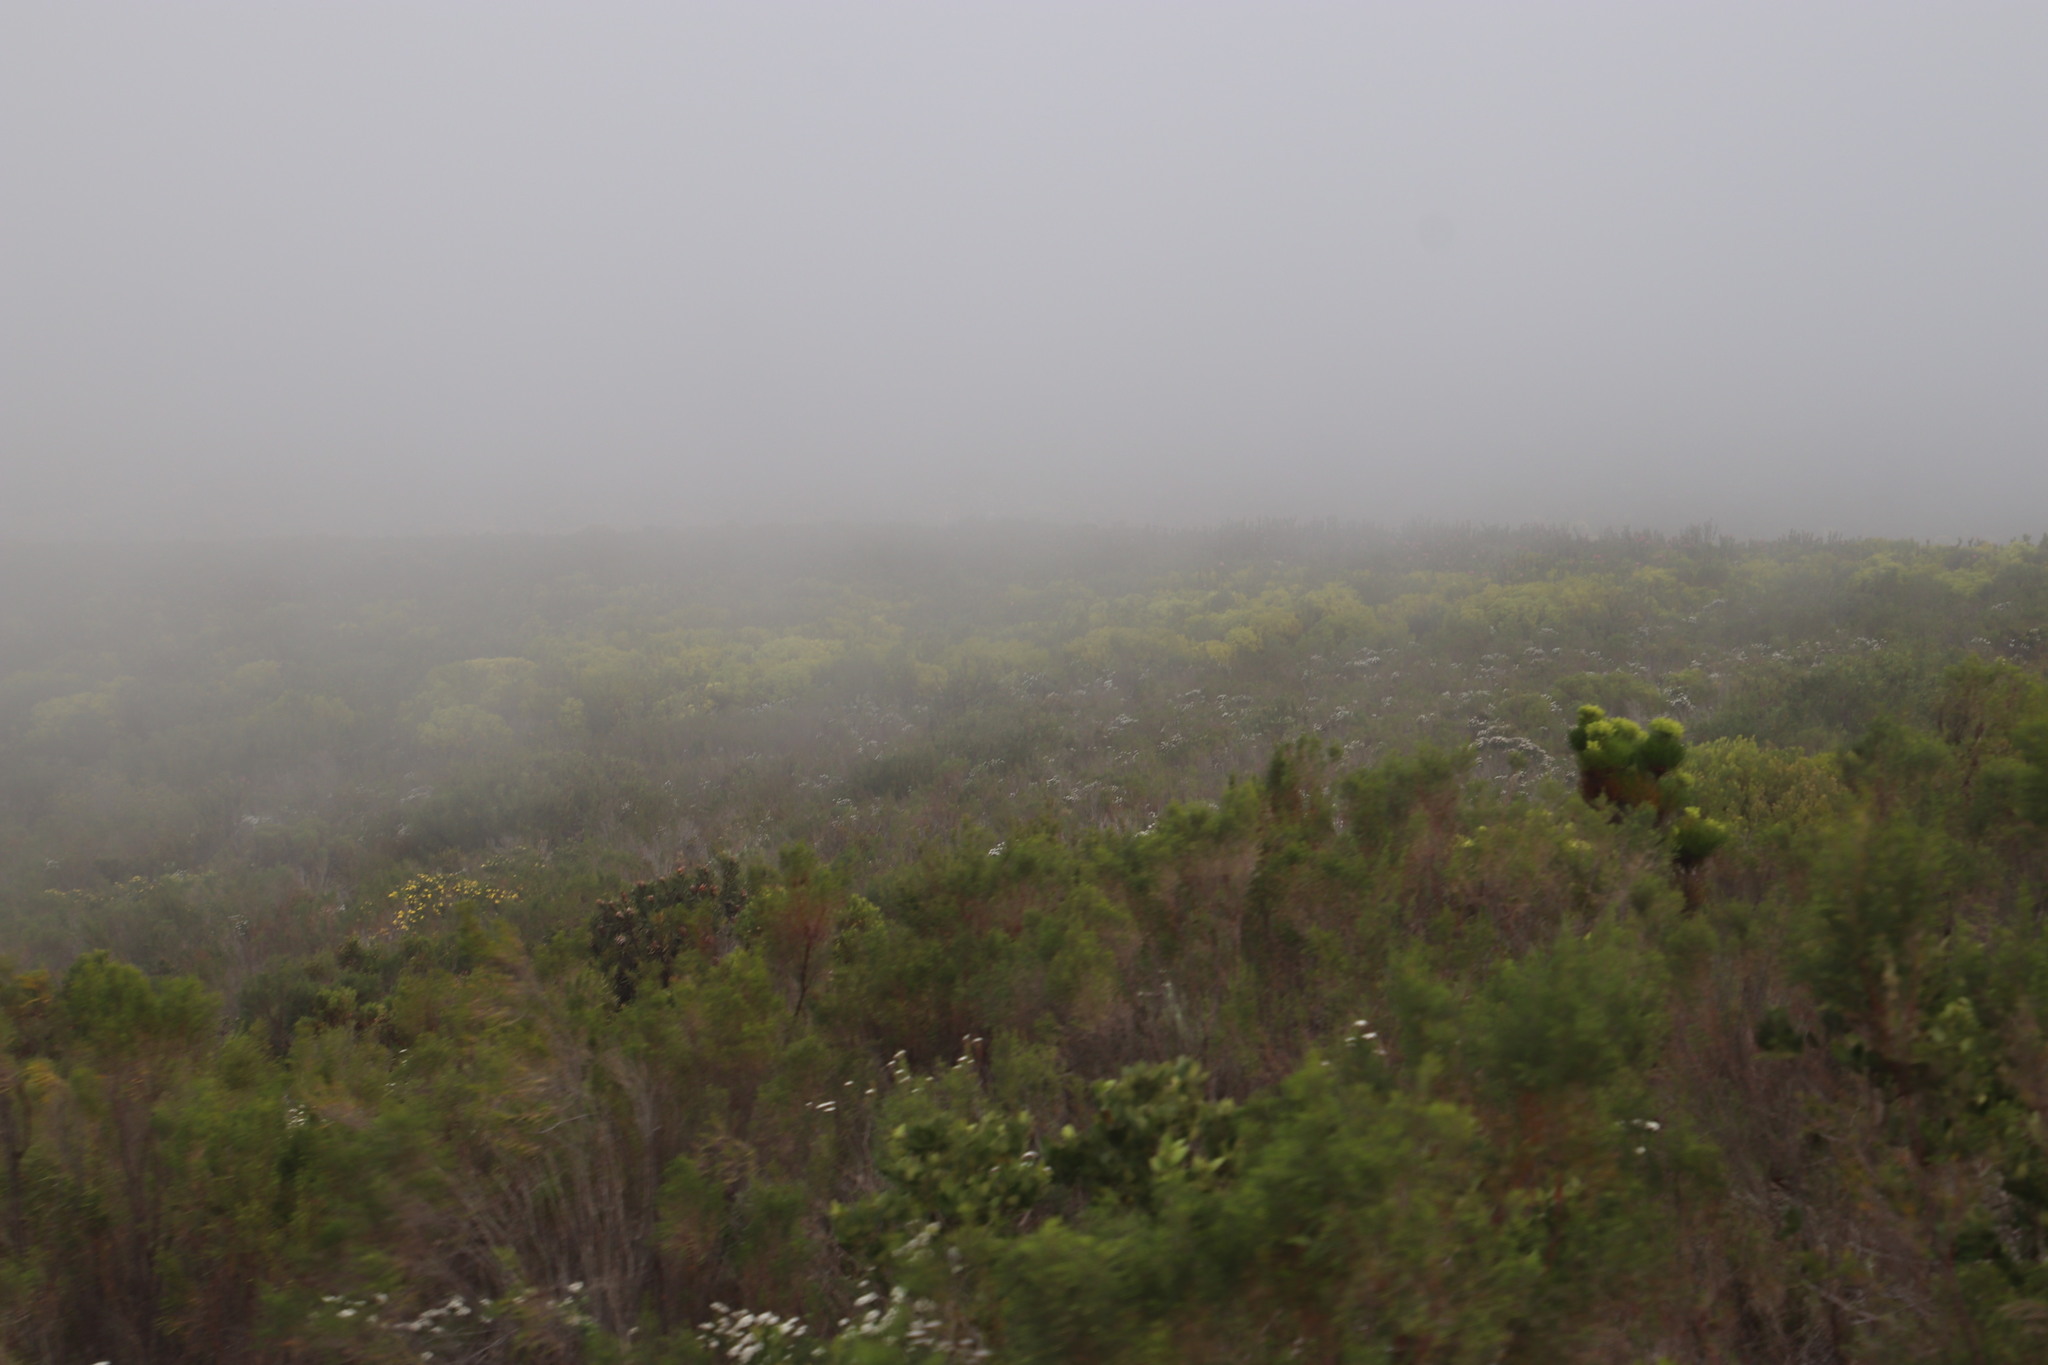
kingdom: Plantae
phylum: Tracheophyta
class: Magnoliopsida
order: Proteales
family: Proteaceae
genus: Leucadendron
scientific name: Leucadendron platyspermum
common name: Plate-seed conebush
